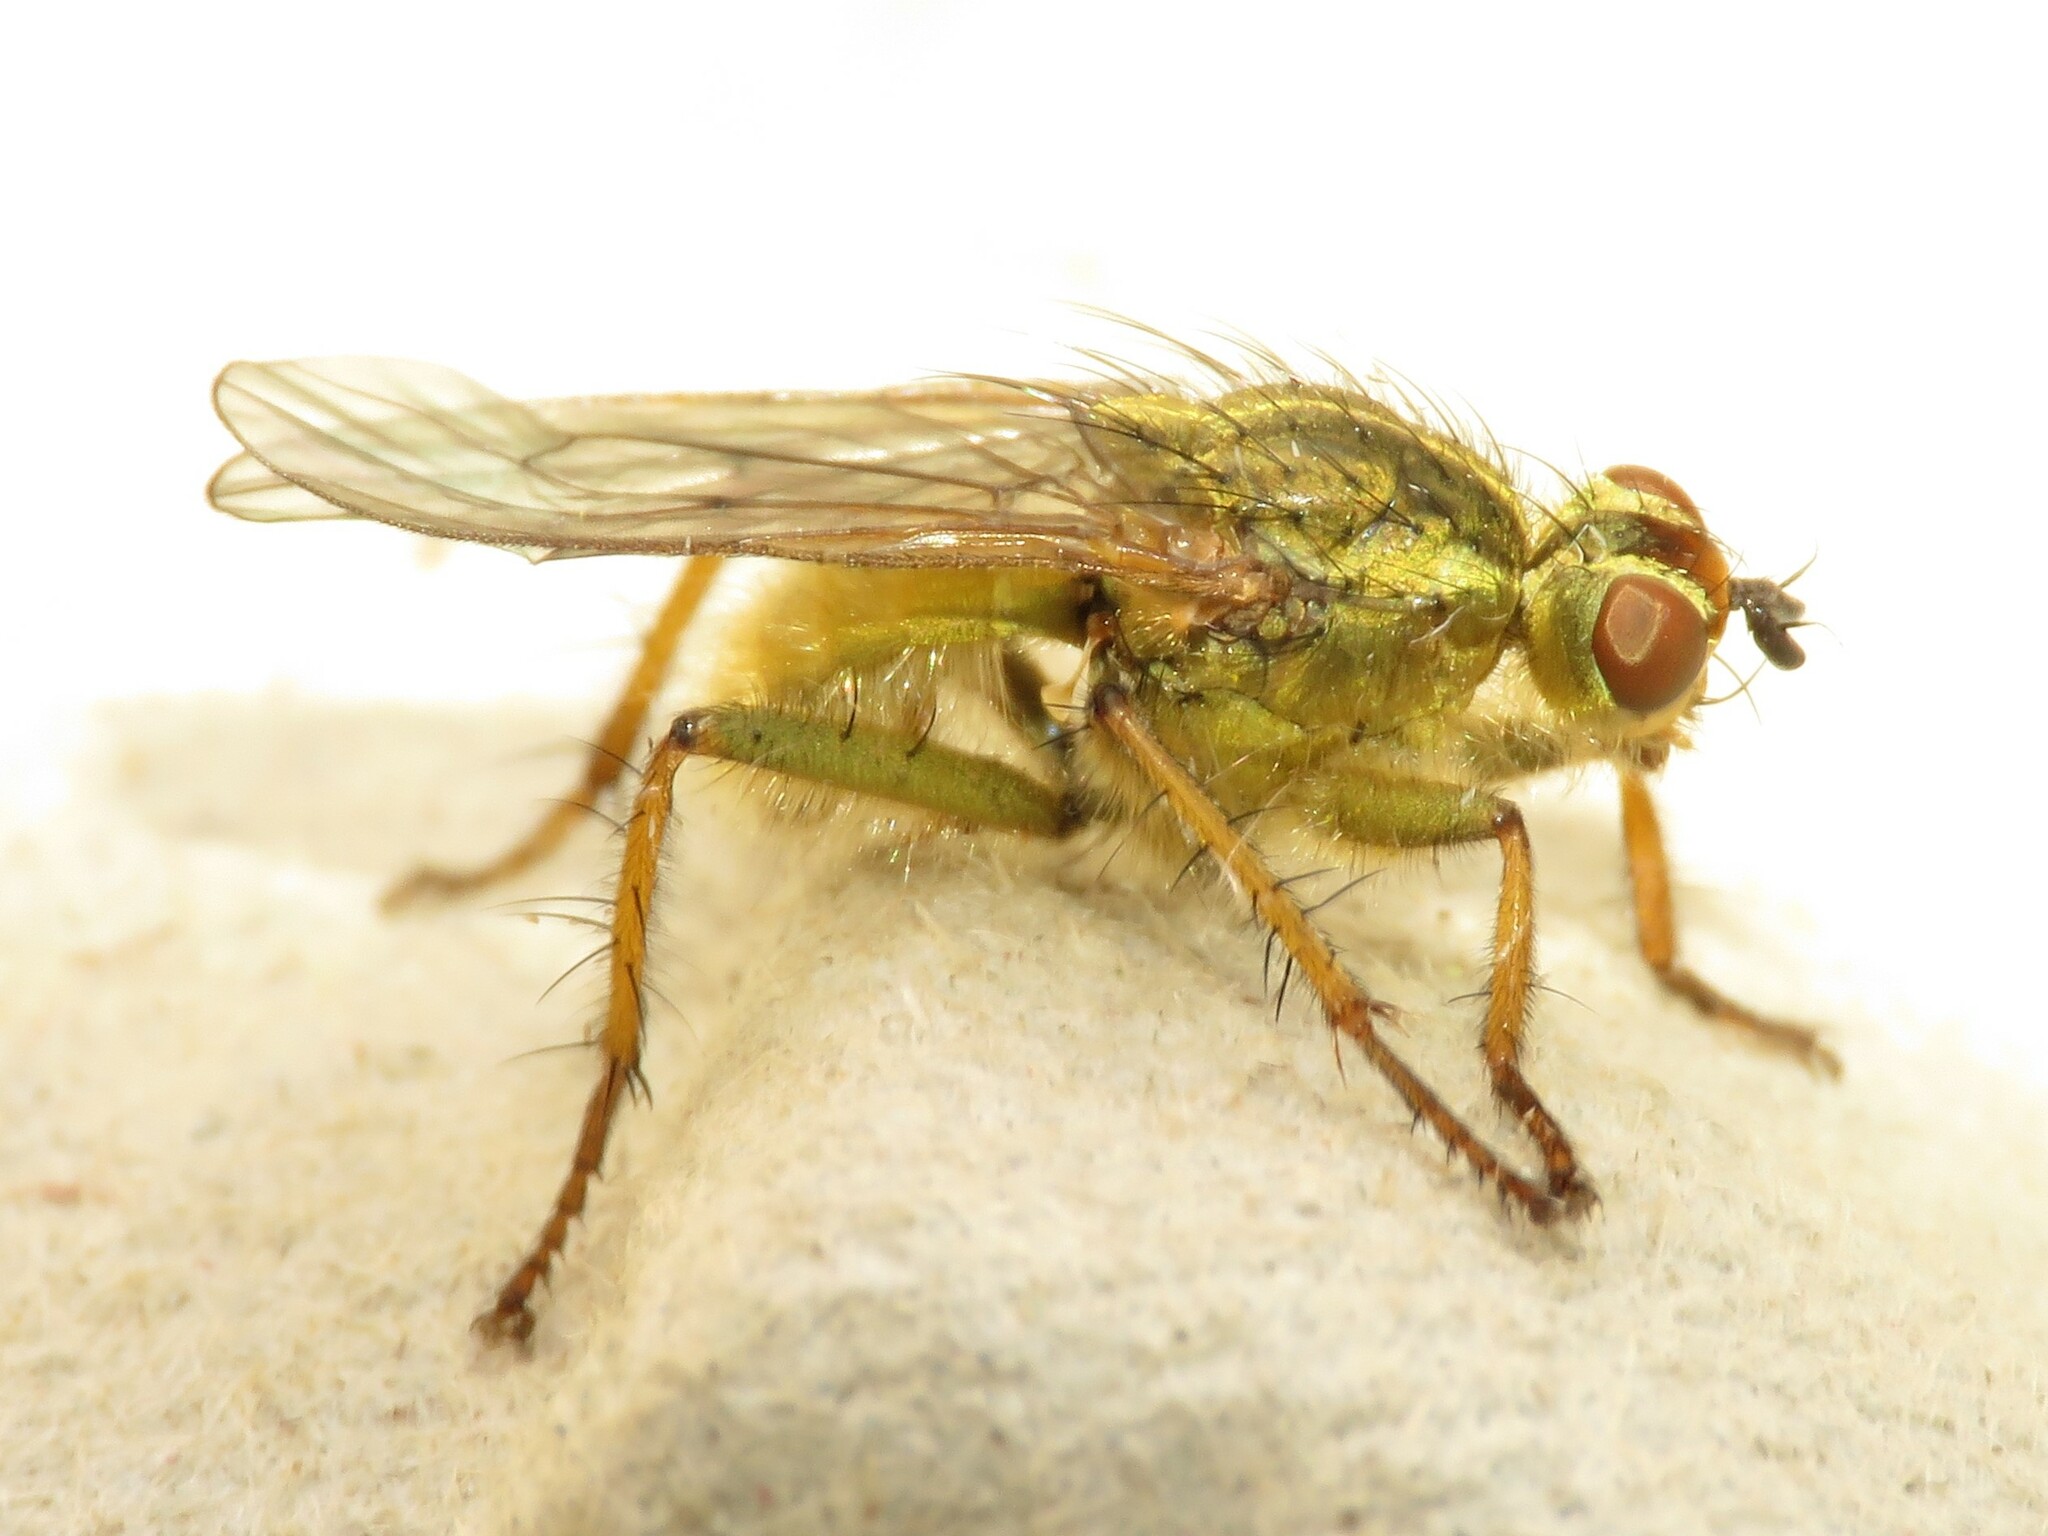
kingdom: Animalia
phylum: Arthropoda
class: Insecta
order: Diptera
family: Scathophagidae
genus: Scathophaga
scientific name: Scathophaga stercoraria
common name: Yellow dung fly
